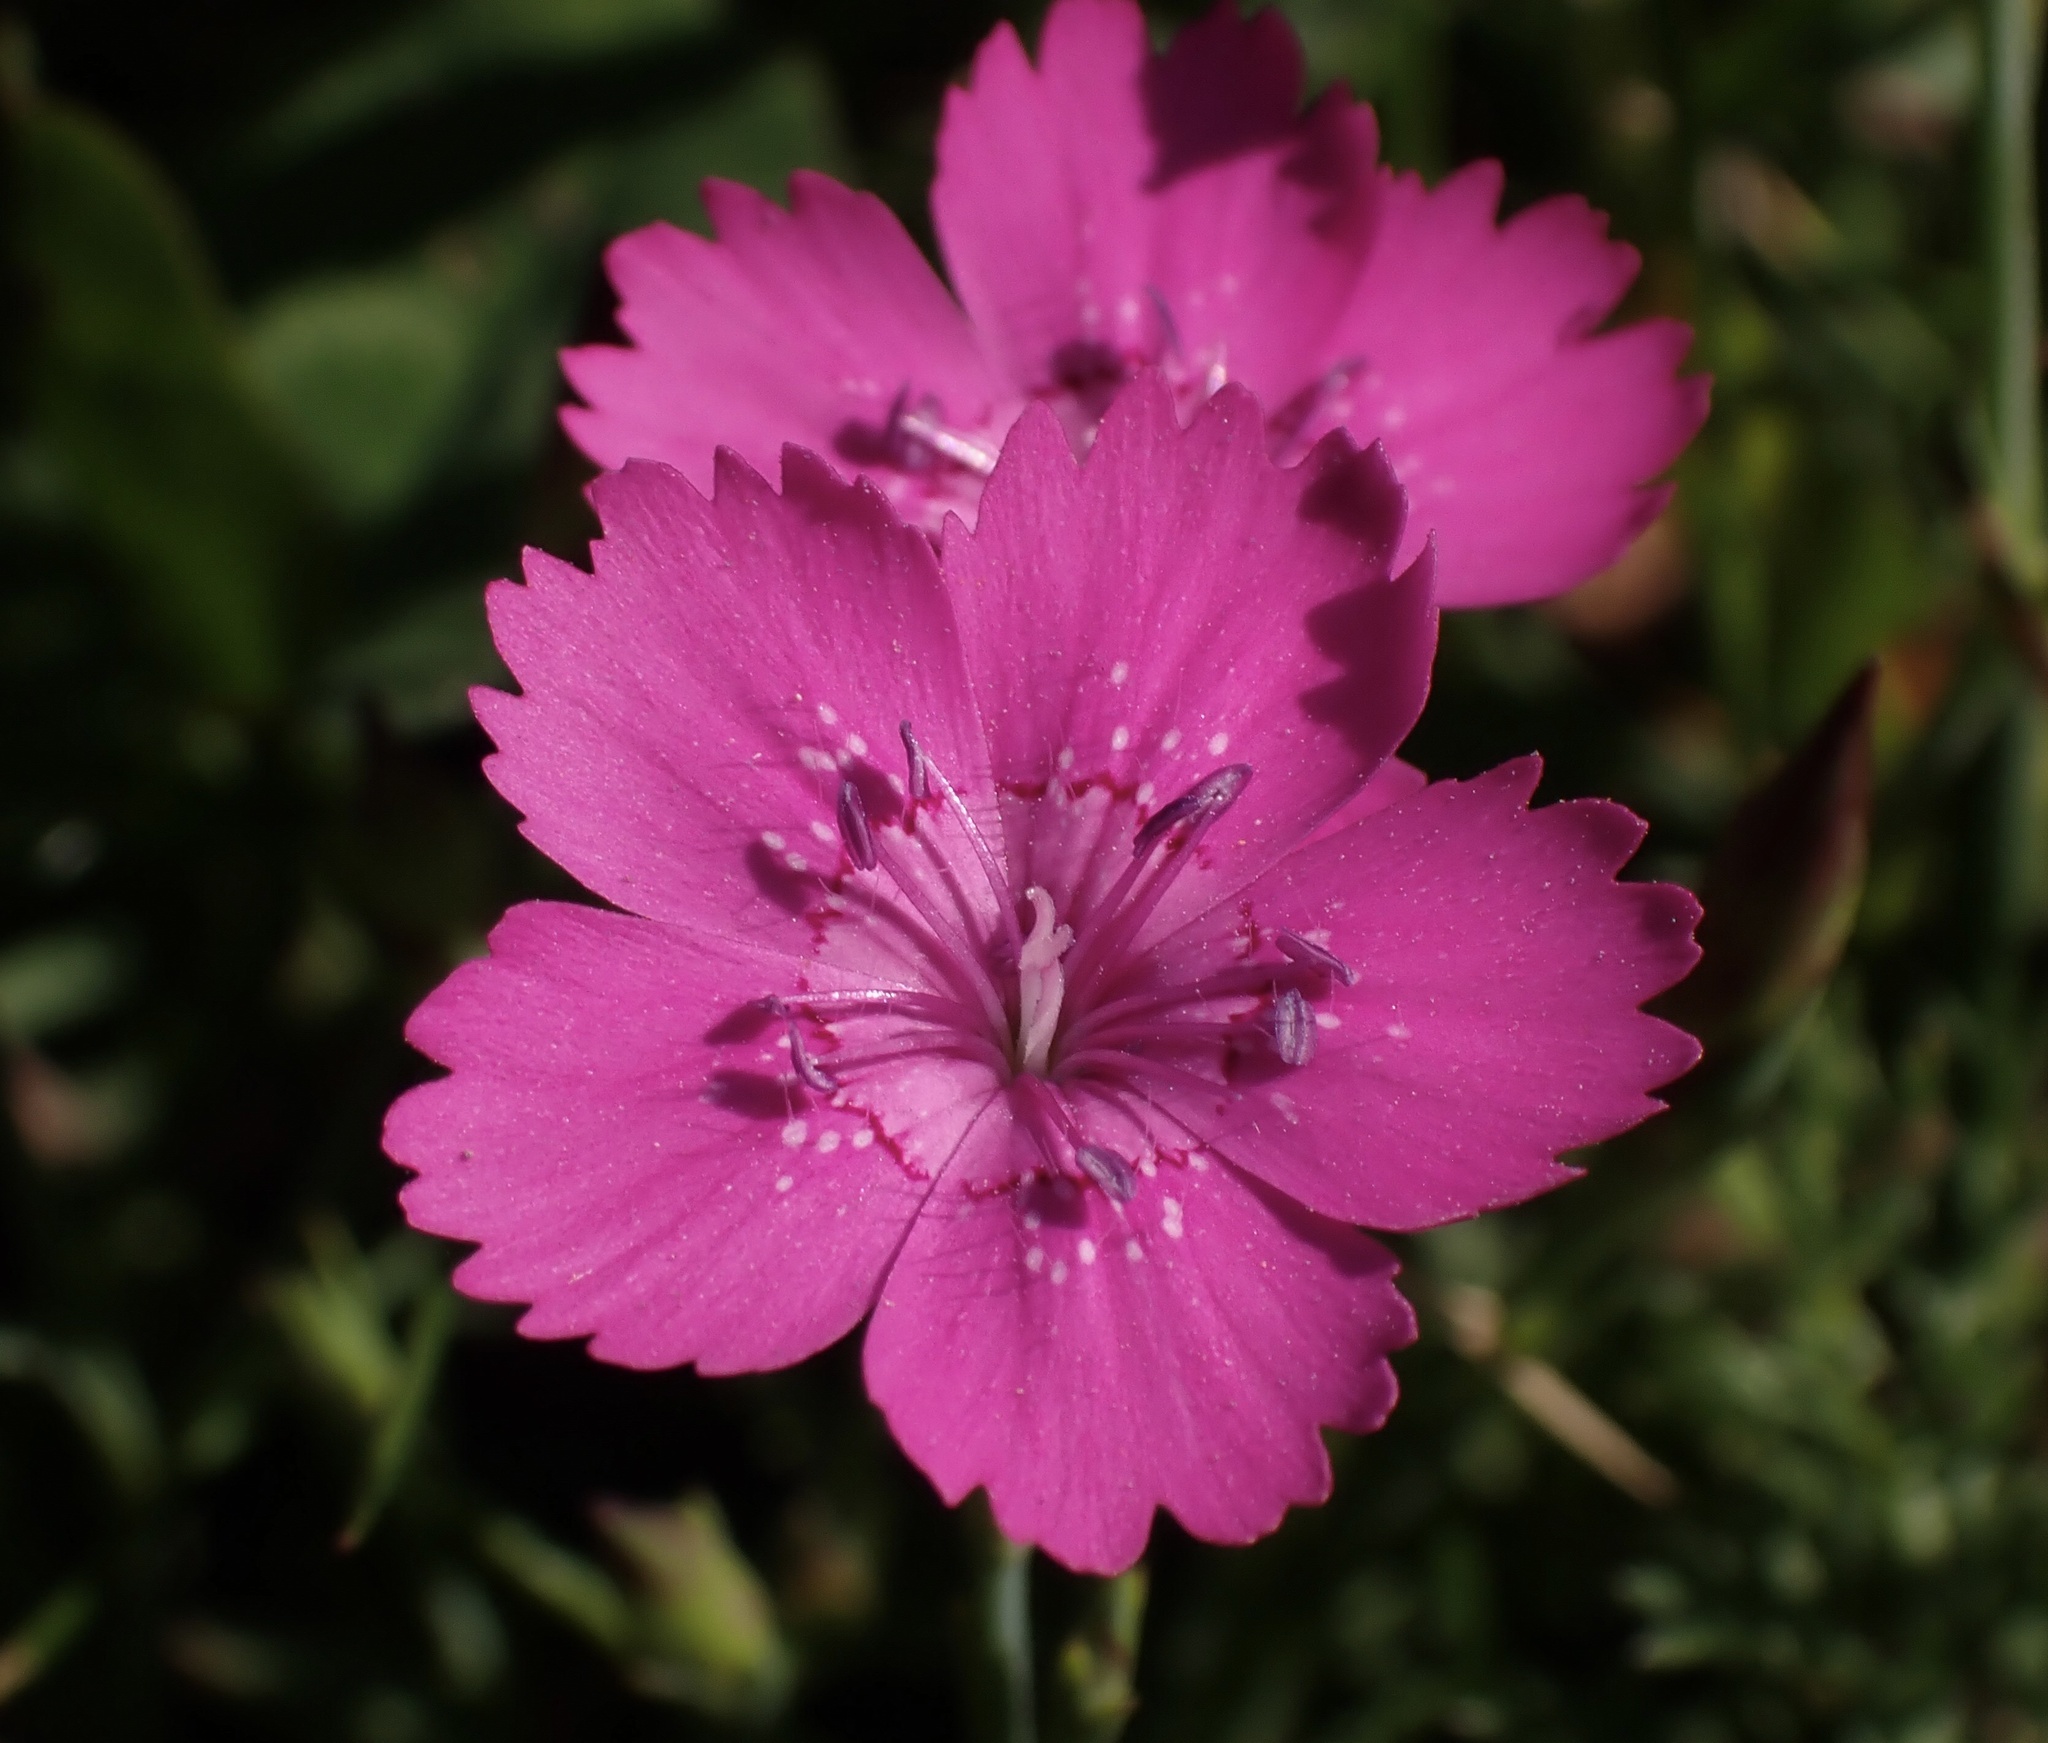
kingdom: Plantae
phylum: Tracheophyta
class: Magnoliopsida
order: Caryophyllales
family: Caryophyllaceae
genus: Dianthus
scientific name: Dianthus deltoides
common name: Maiden pink
